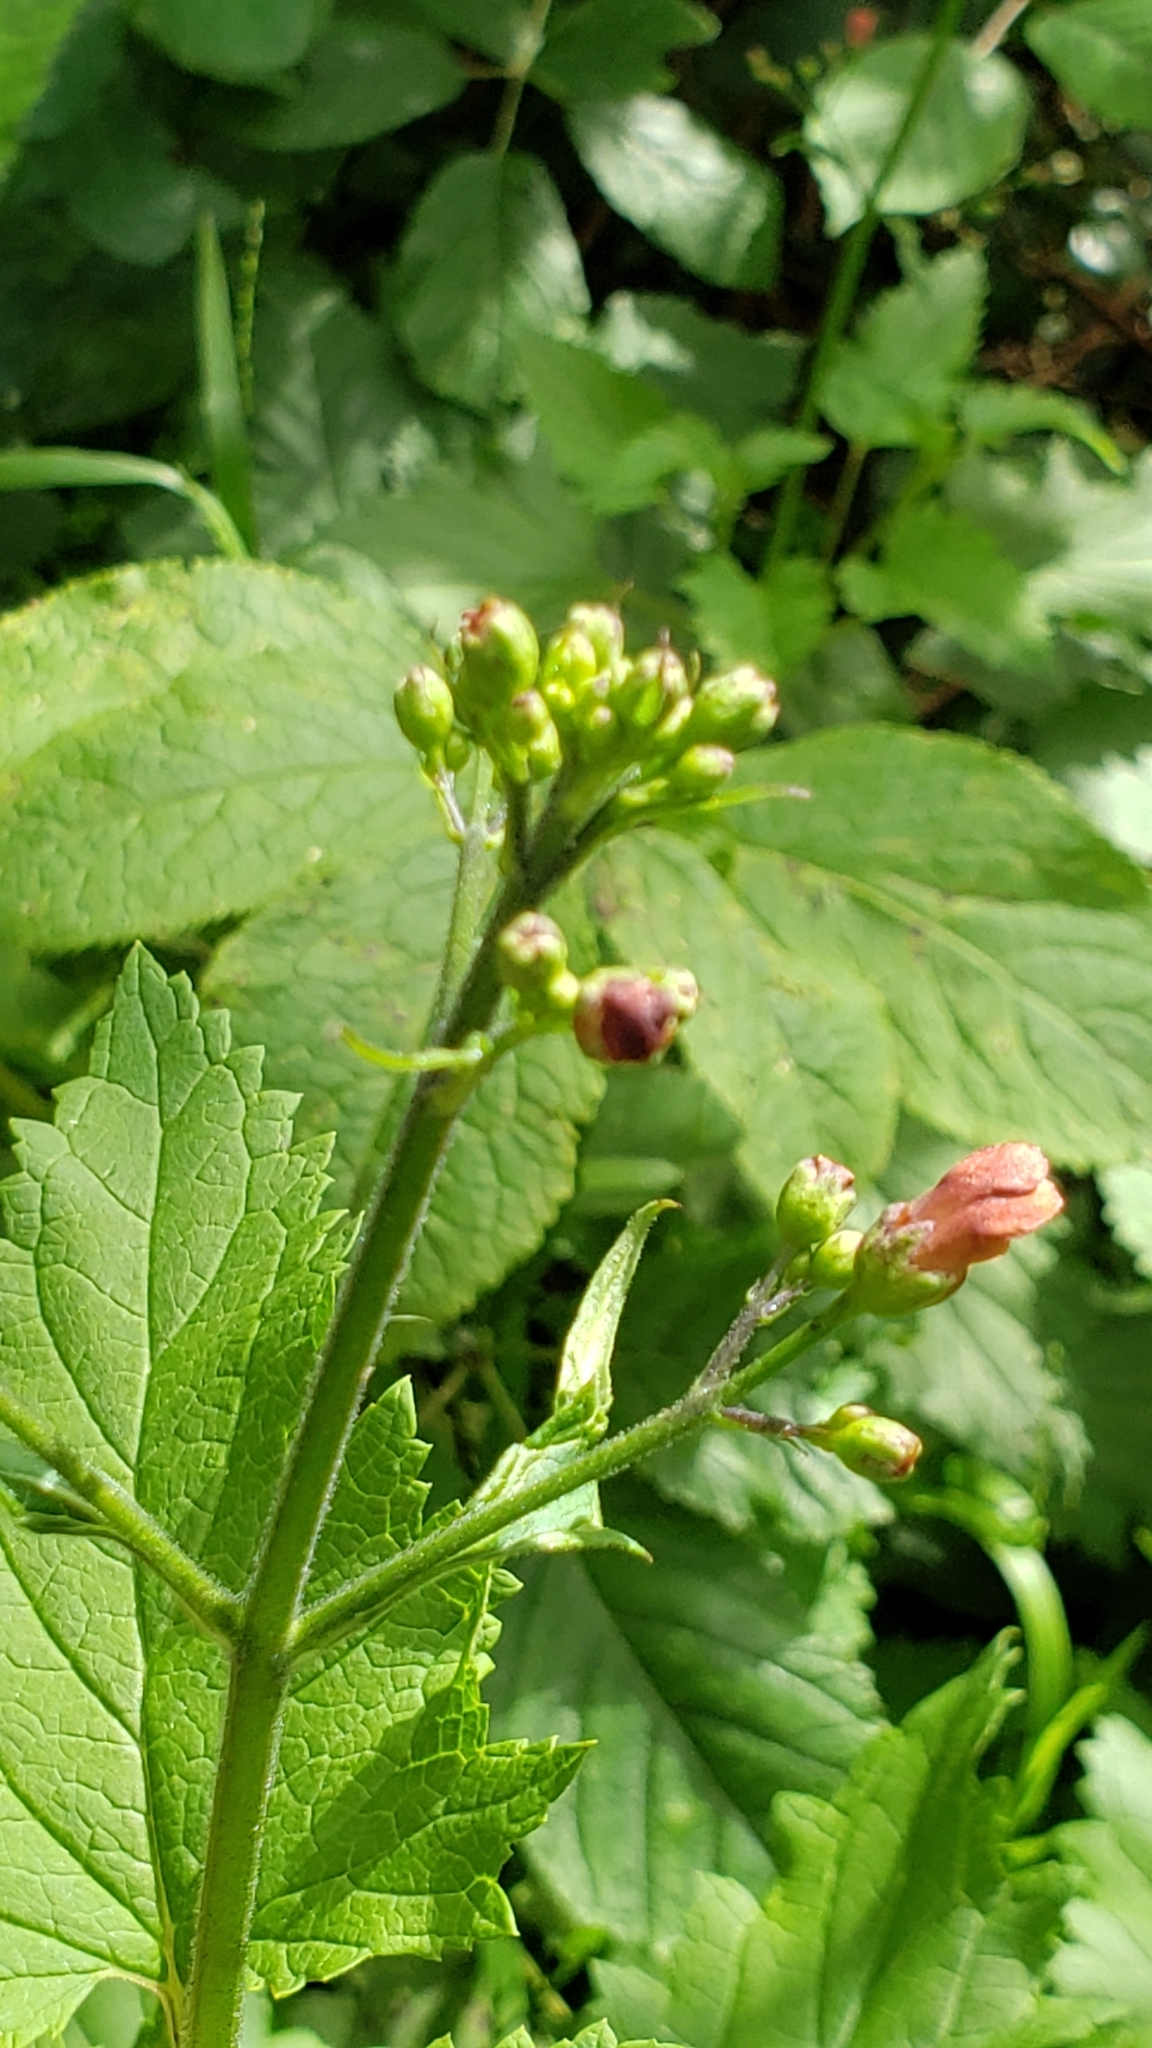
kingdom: Plantae
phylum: Tracheophyta
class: Magnoliopsida
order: Lamiales
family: Scrophulariaceae
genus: Scrophularia
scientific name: Scrophularia californica
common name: California figwort
